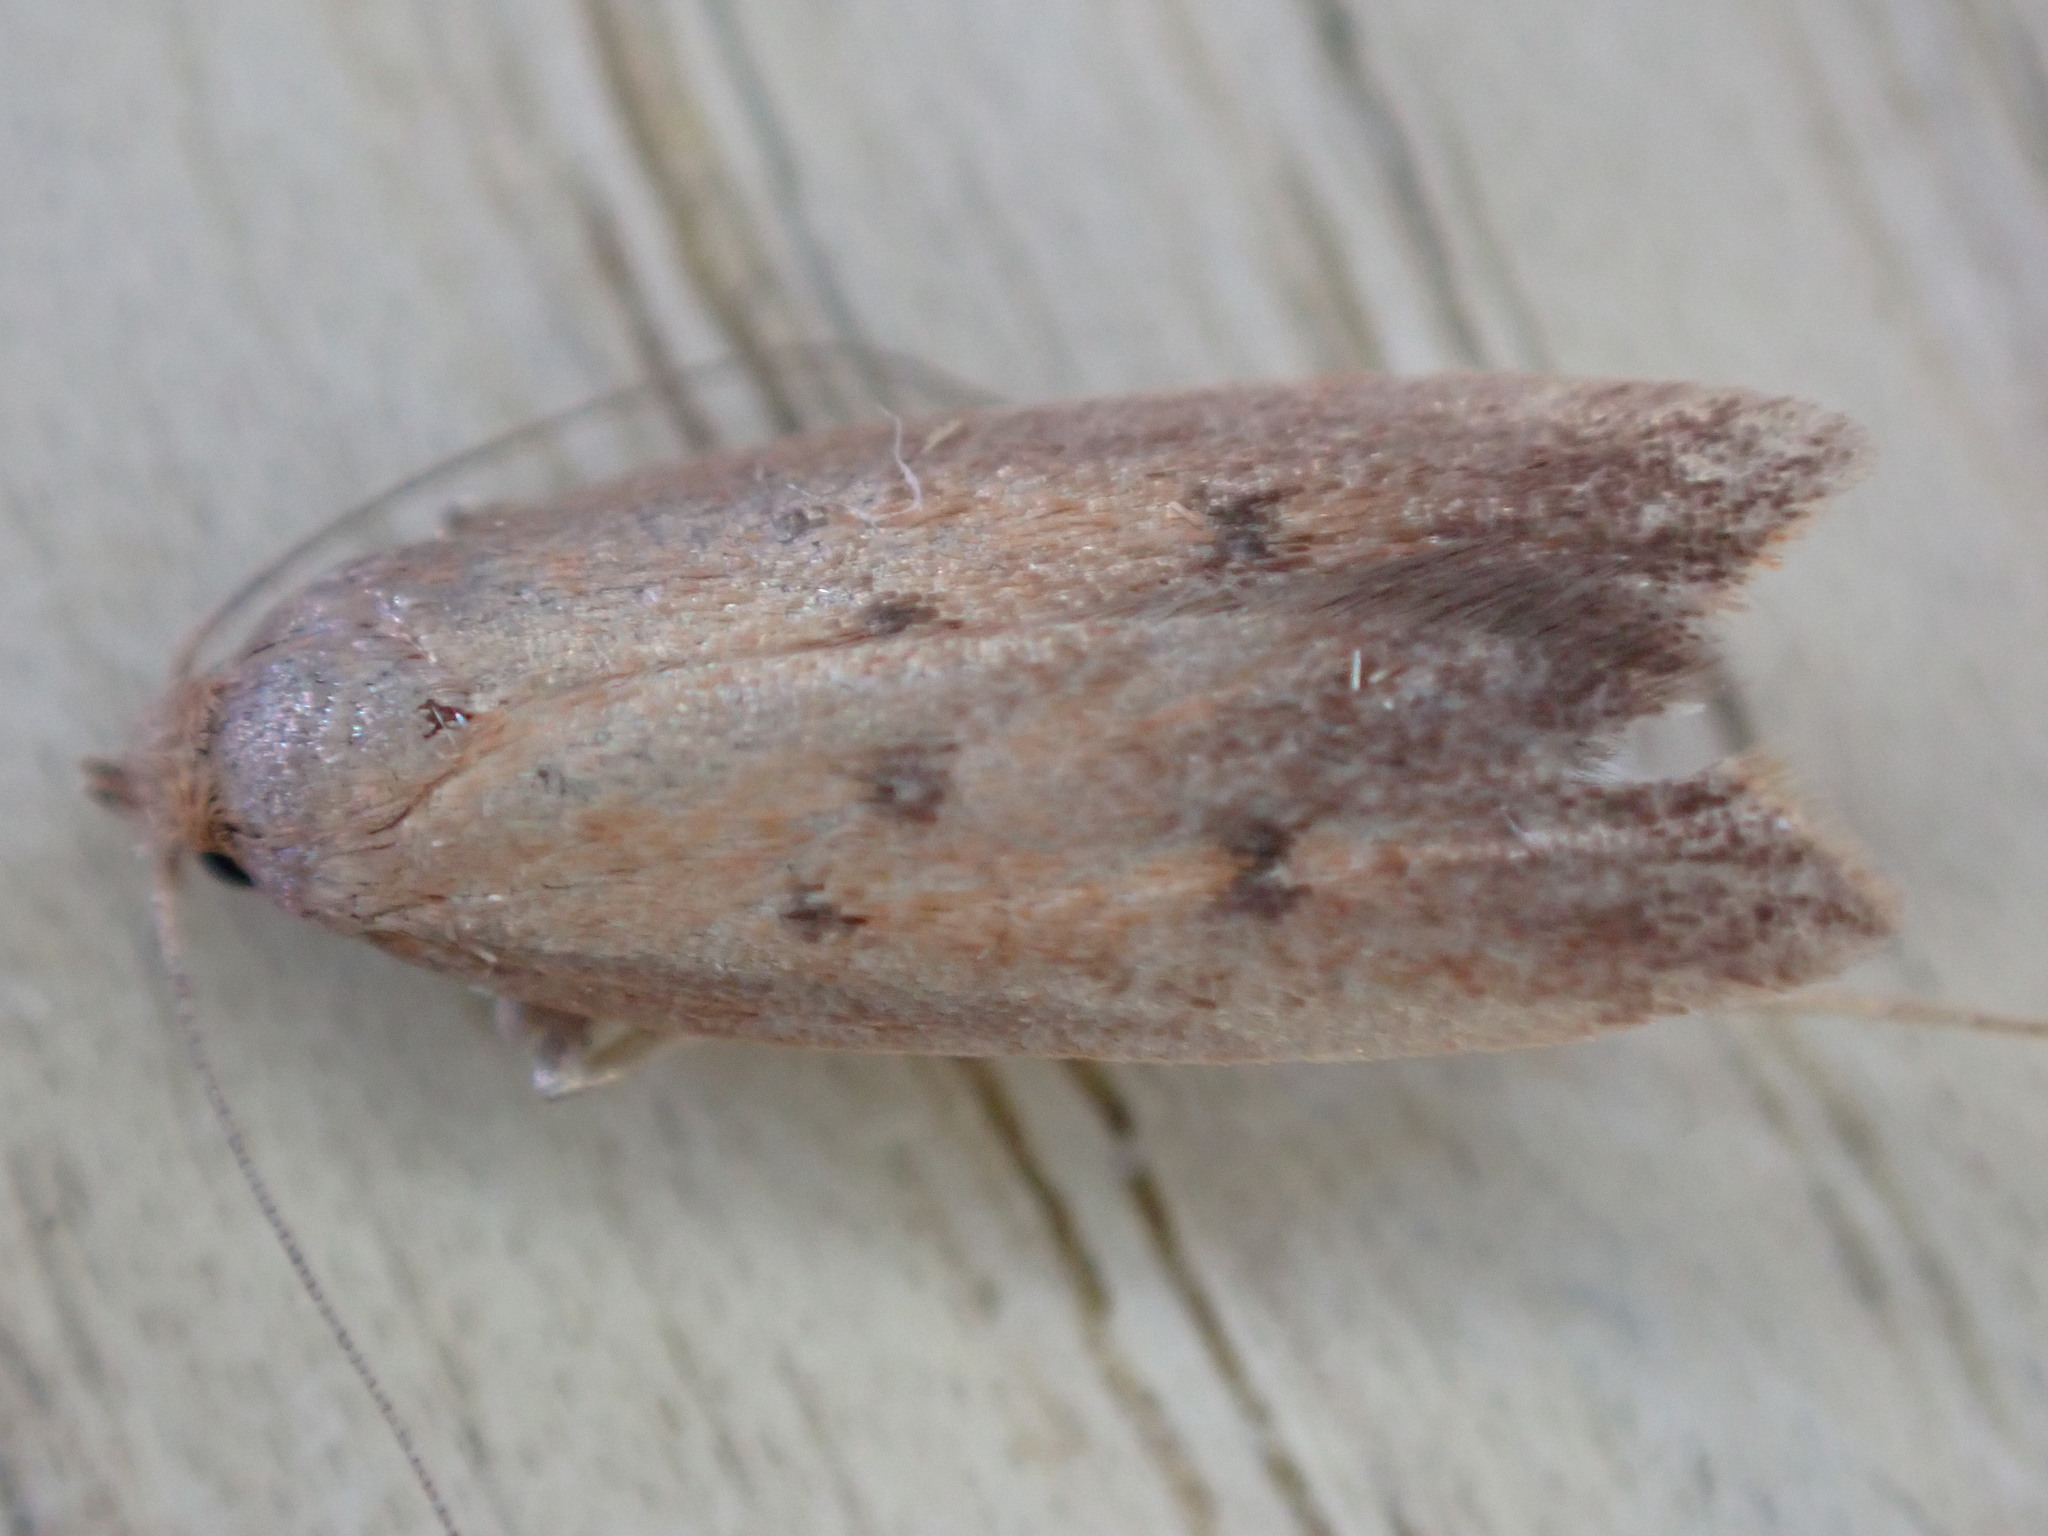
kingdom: Animalia
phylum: Arthropoda
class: Insecta
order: Lepidoptera
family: Oecophoridae
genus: Tachystola
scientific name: Tachystola acroxantha
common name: Ruddy streak
